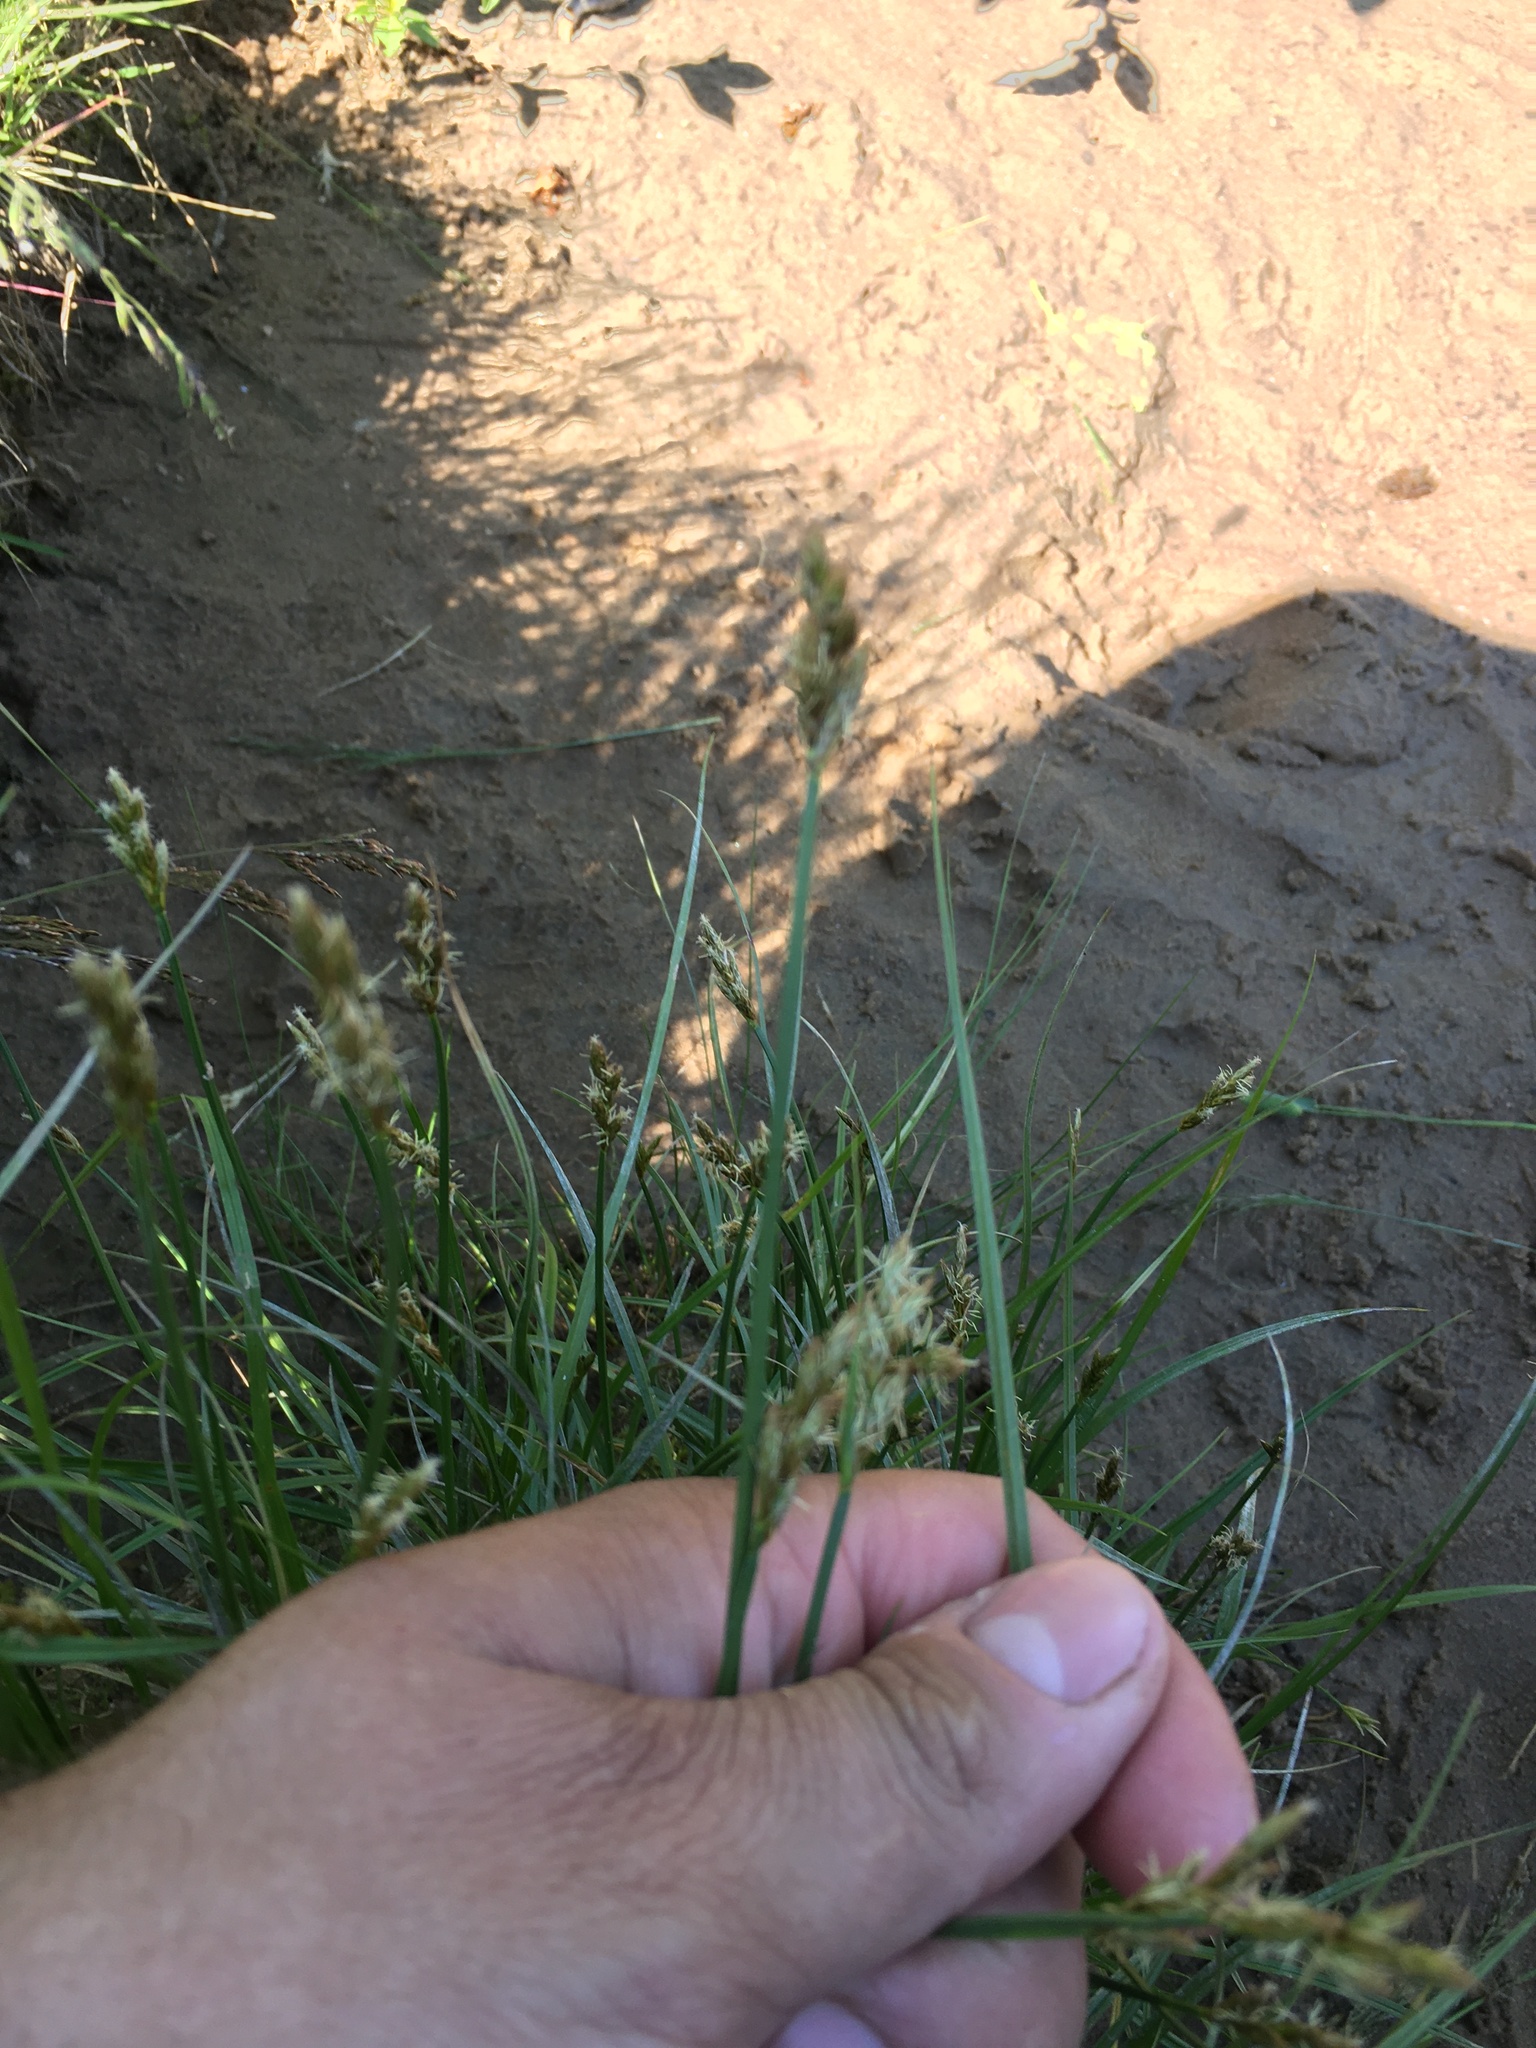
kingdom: Plantae
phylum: Tracheophyta
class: Liliopsida
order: Poales
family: Cyperaceae
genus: Carex
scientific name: Carex leporina
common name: Oval sedge
